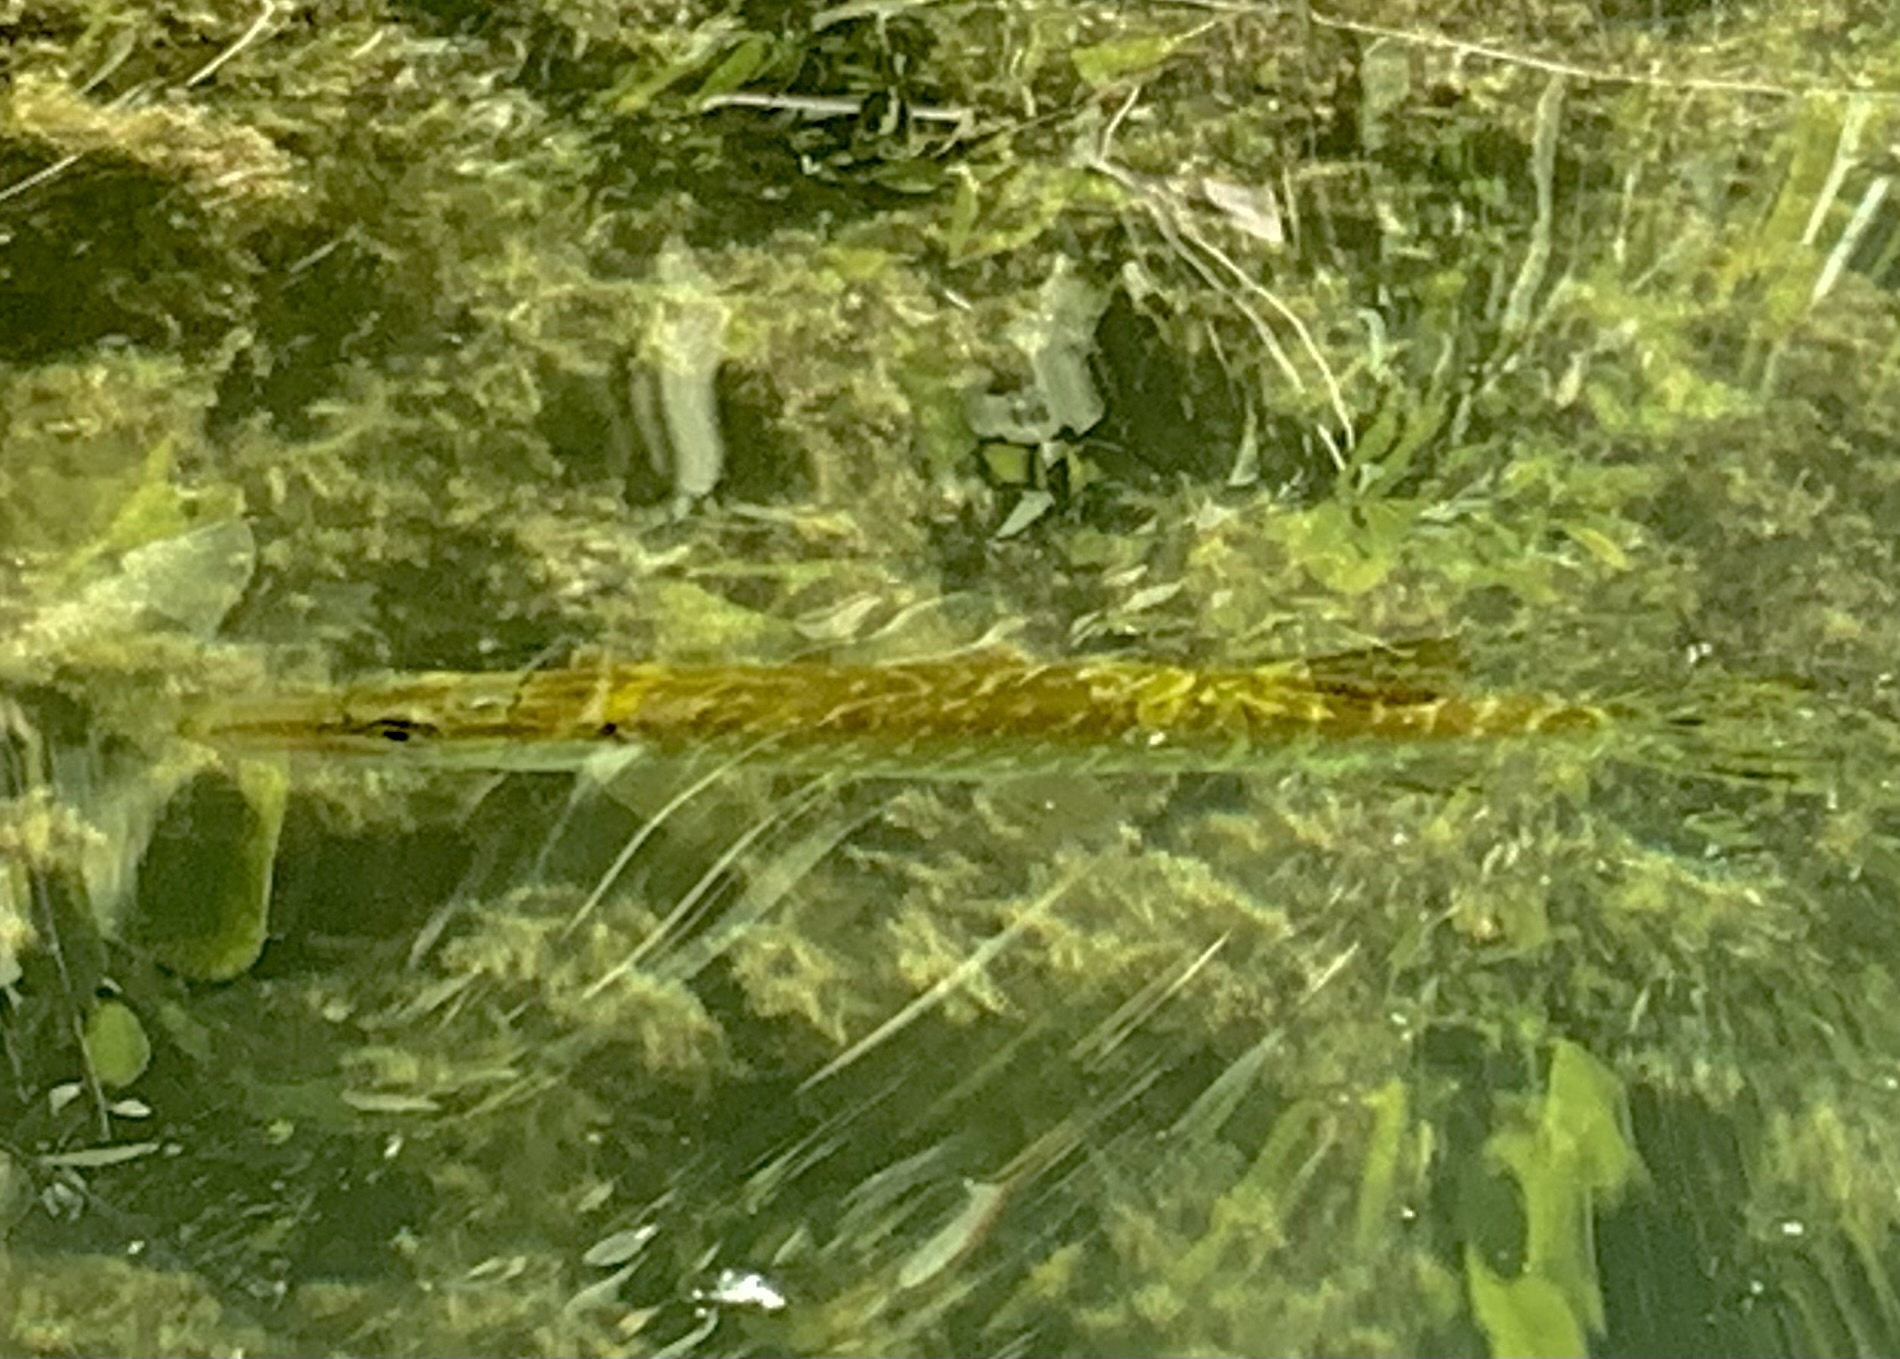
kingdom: Animalia
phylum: Chordata
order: Esociformes
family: Esocidae
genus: Esox
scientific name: Esox lucius
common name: Northern pike
